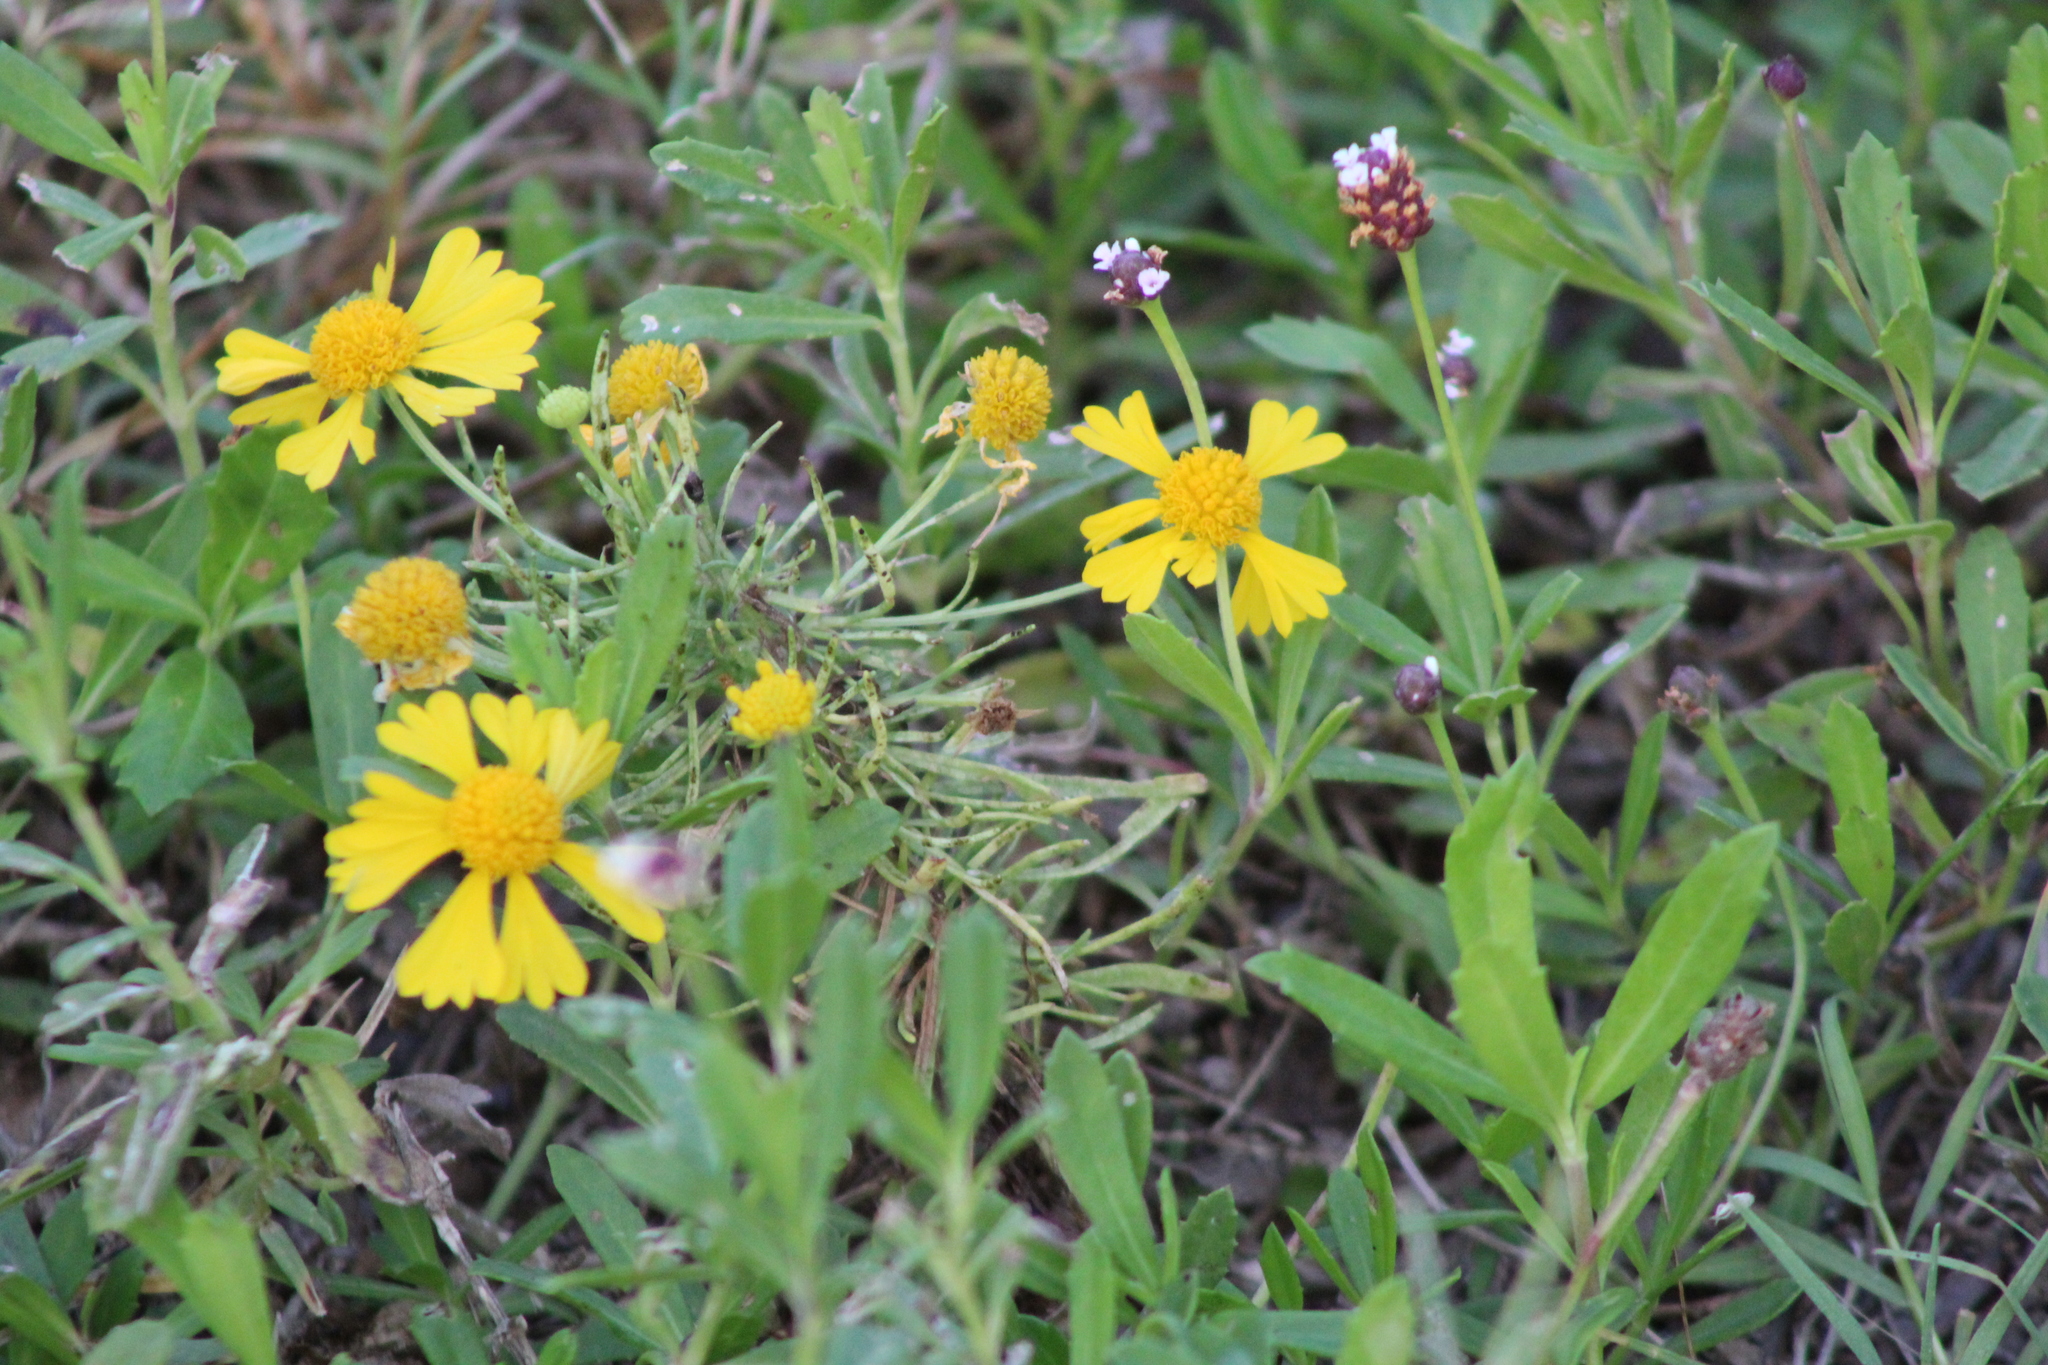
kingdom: Plantae
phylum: Tracheophyta
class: Magnoliopsida
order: Asterales
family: Asteraceae
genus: Helenium
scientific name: Helenium amarum
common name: Bitter sneezeweed
